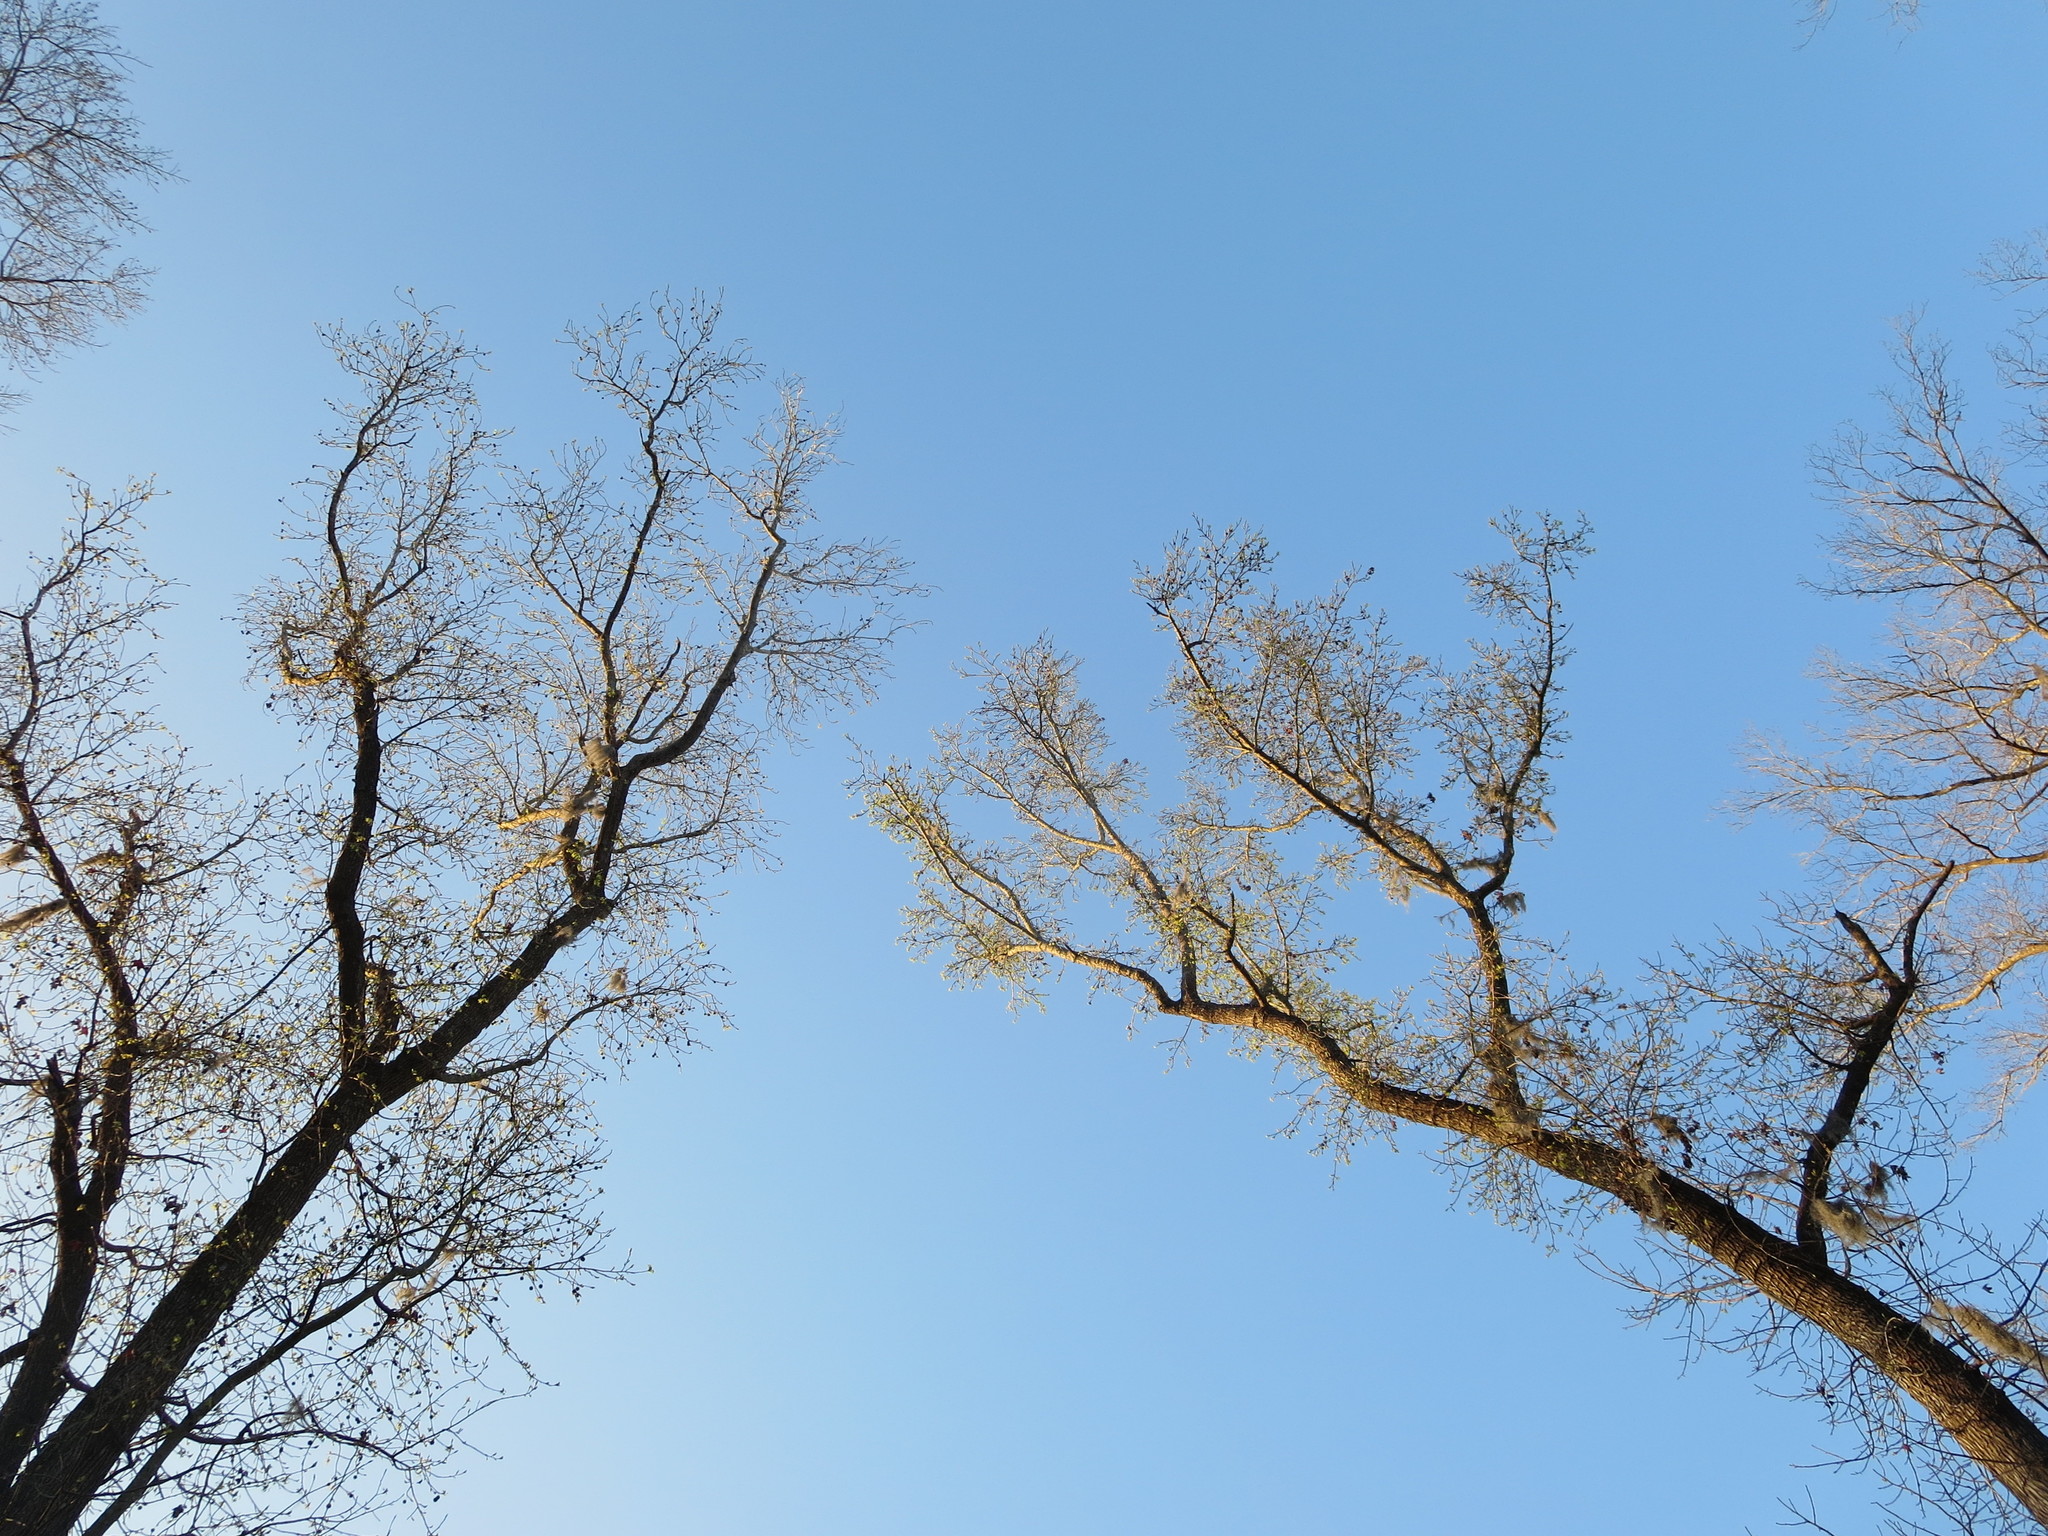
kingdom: Plantae
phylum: Tracheophyta
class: Magnoliopsida
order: Saxifragales
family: Altingiaceae
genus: Liquidambar
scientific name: Liquidambar styraciflua
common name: Sweet gum
